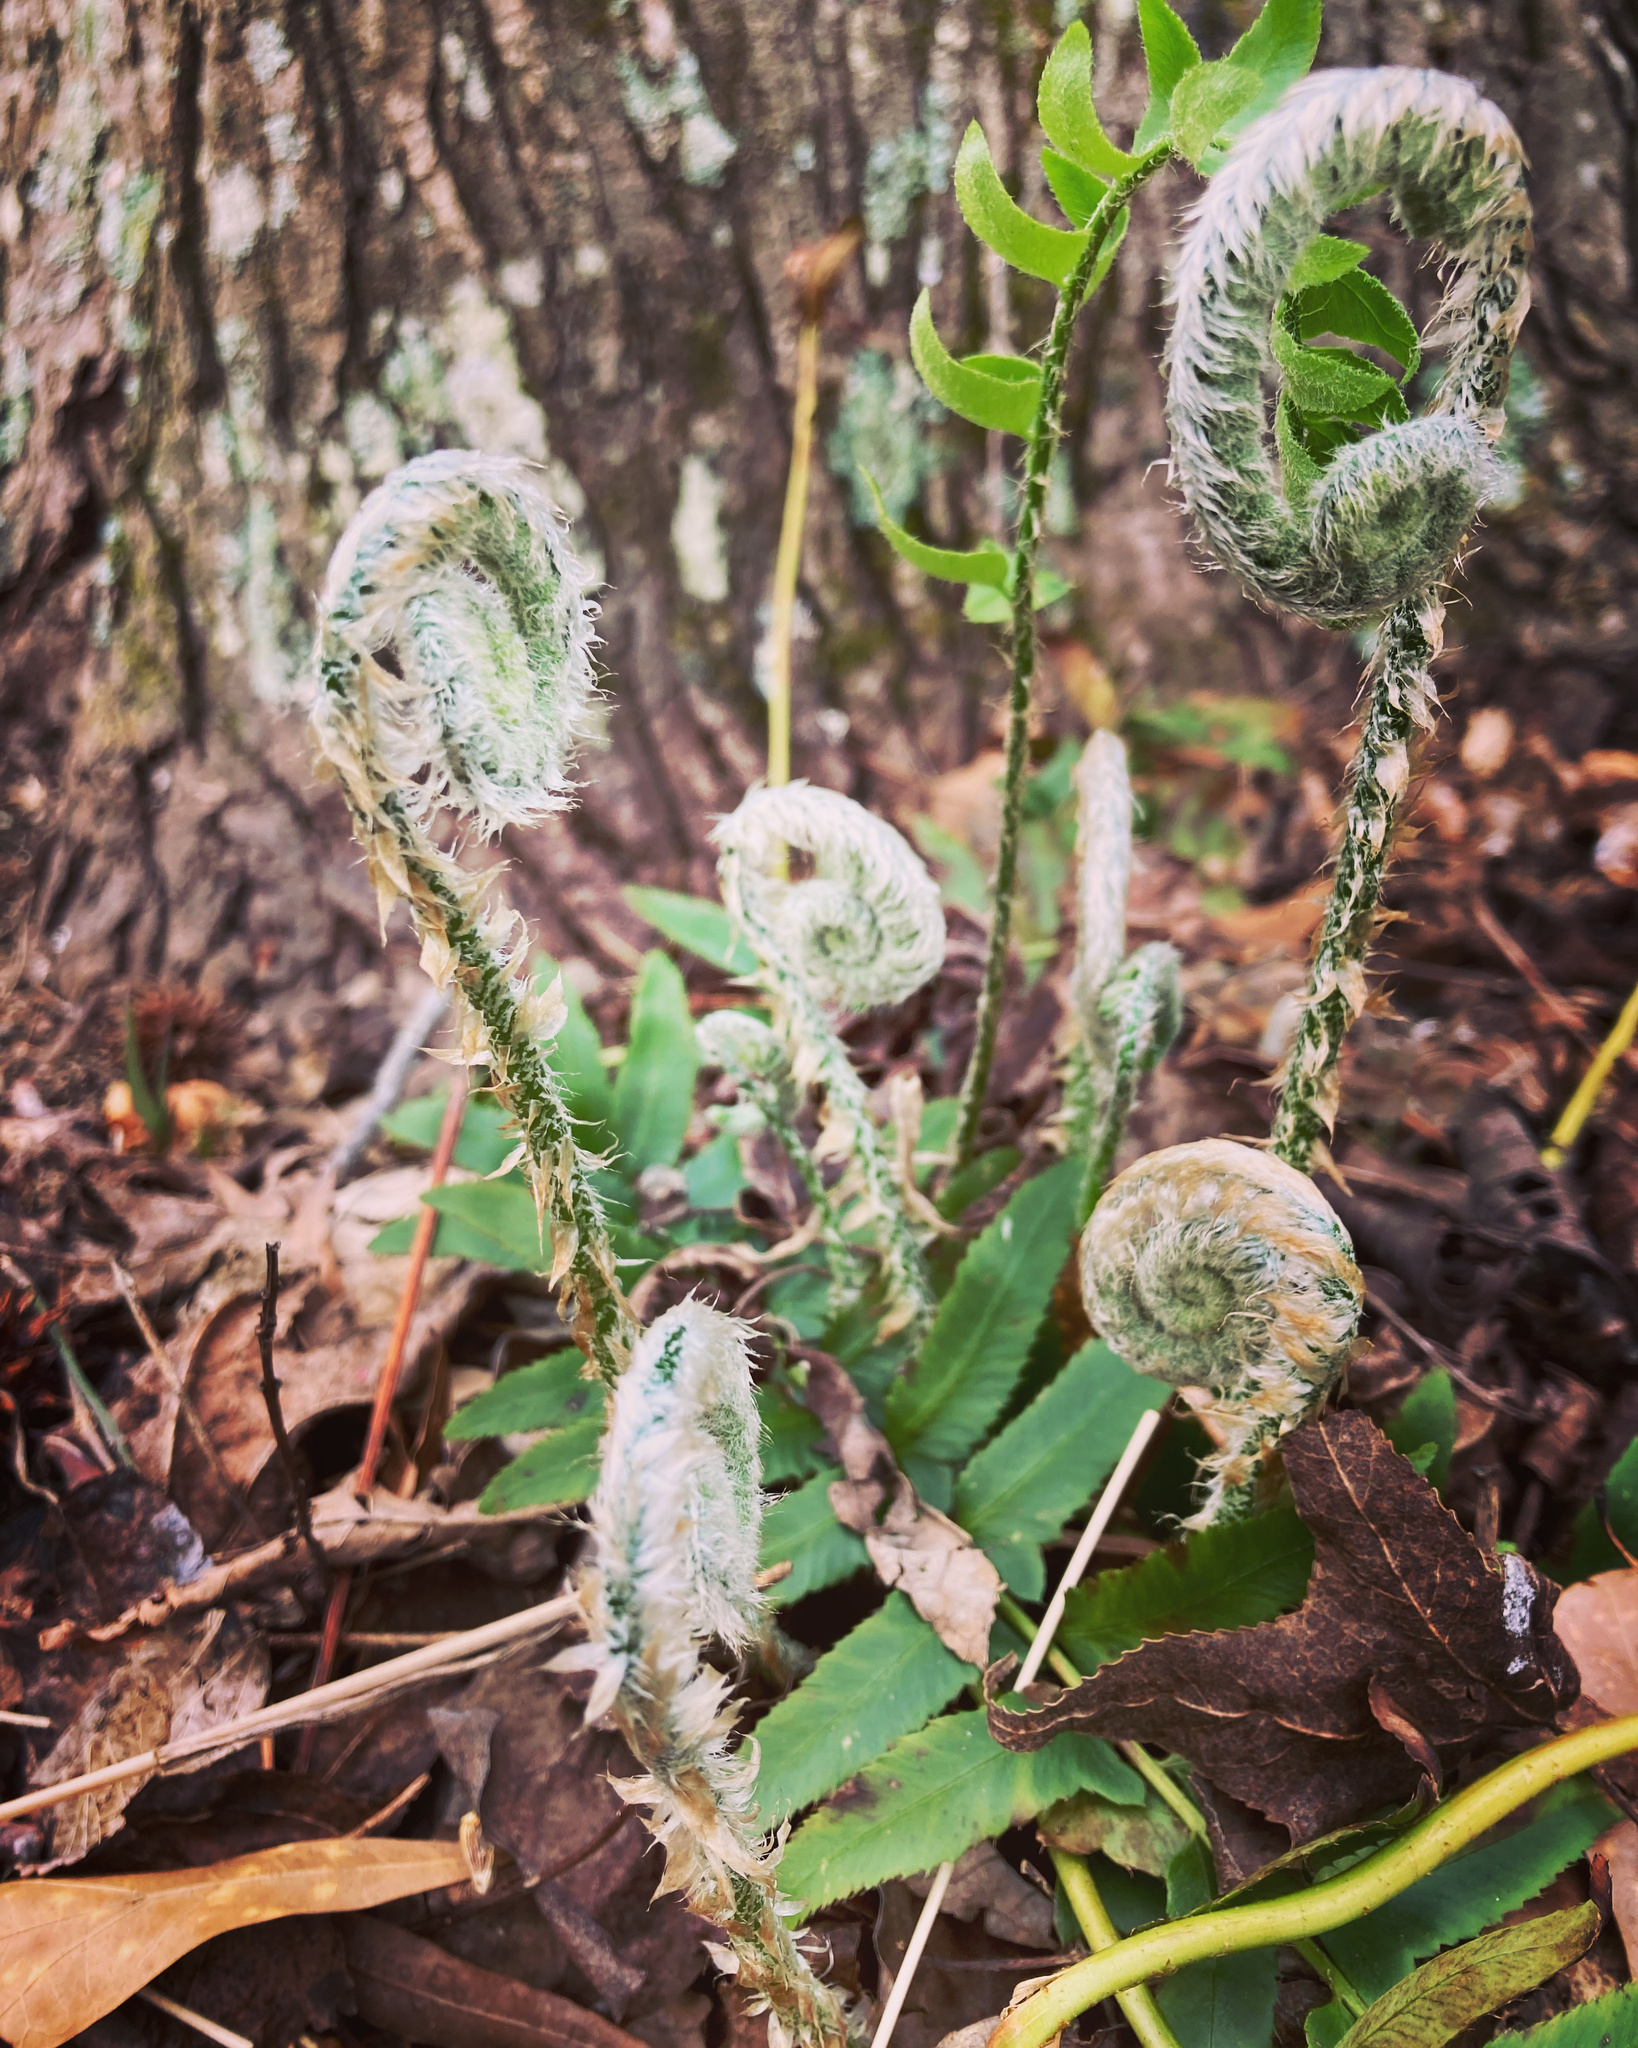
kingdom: Plantae
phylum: Tracheophyta
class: Polypodiopsida
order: Polypodiales
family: Dryopteridaceae
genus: Polystichum
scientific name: Polystichum acrostichoides
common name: Christmas fern
